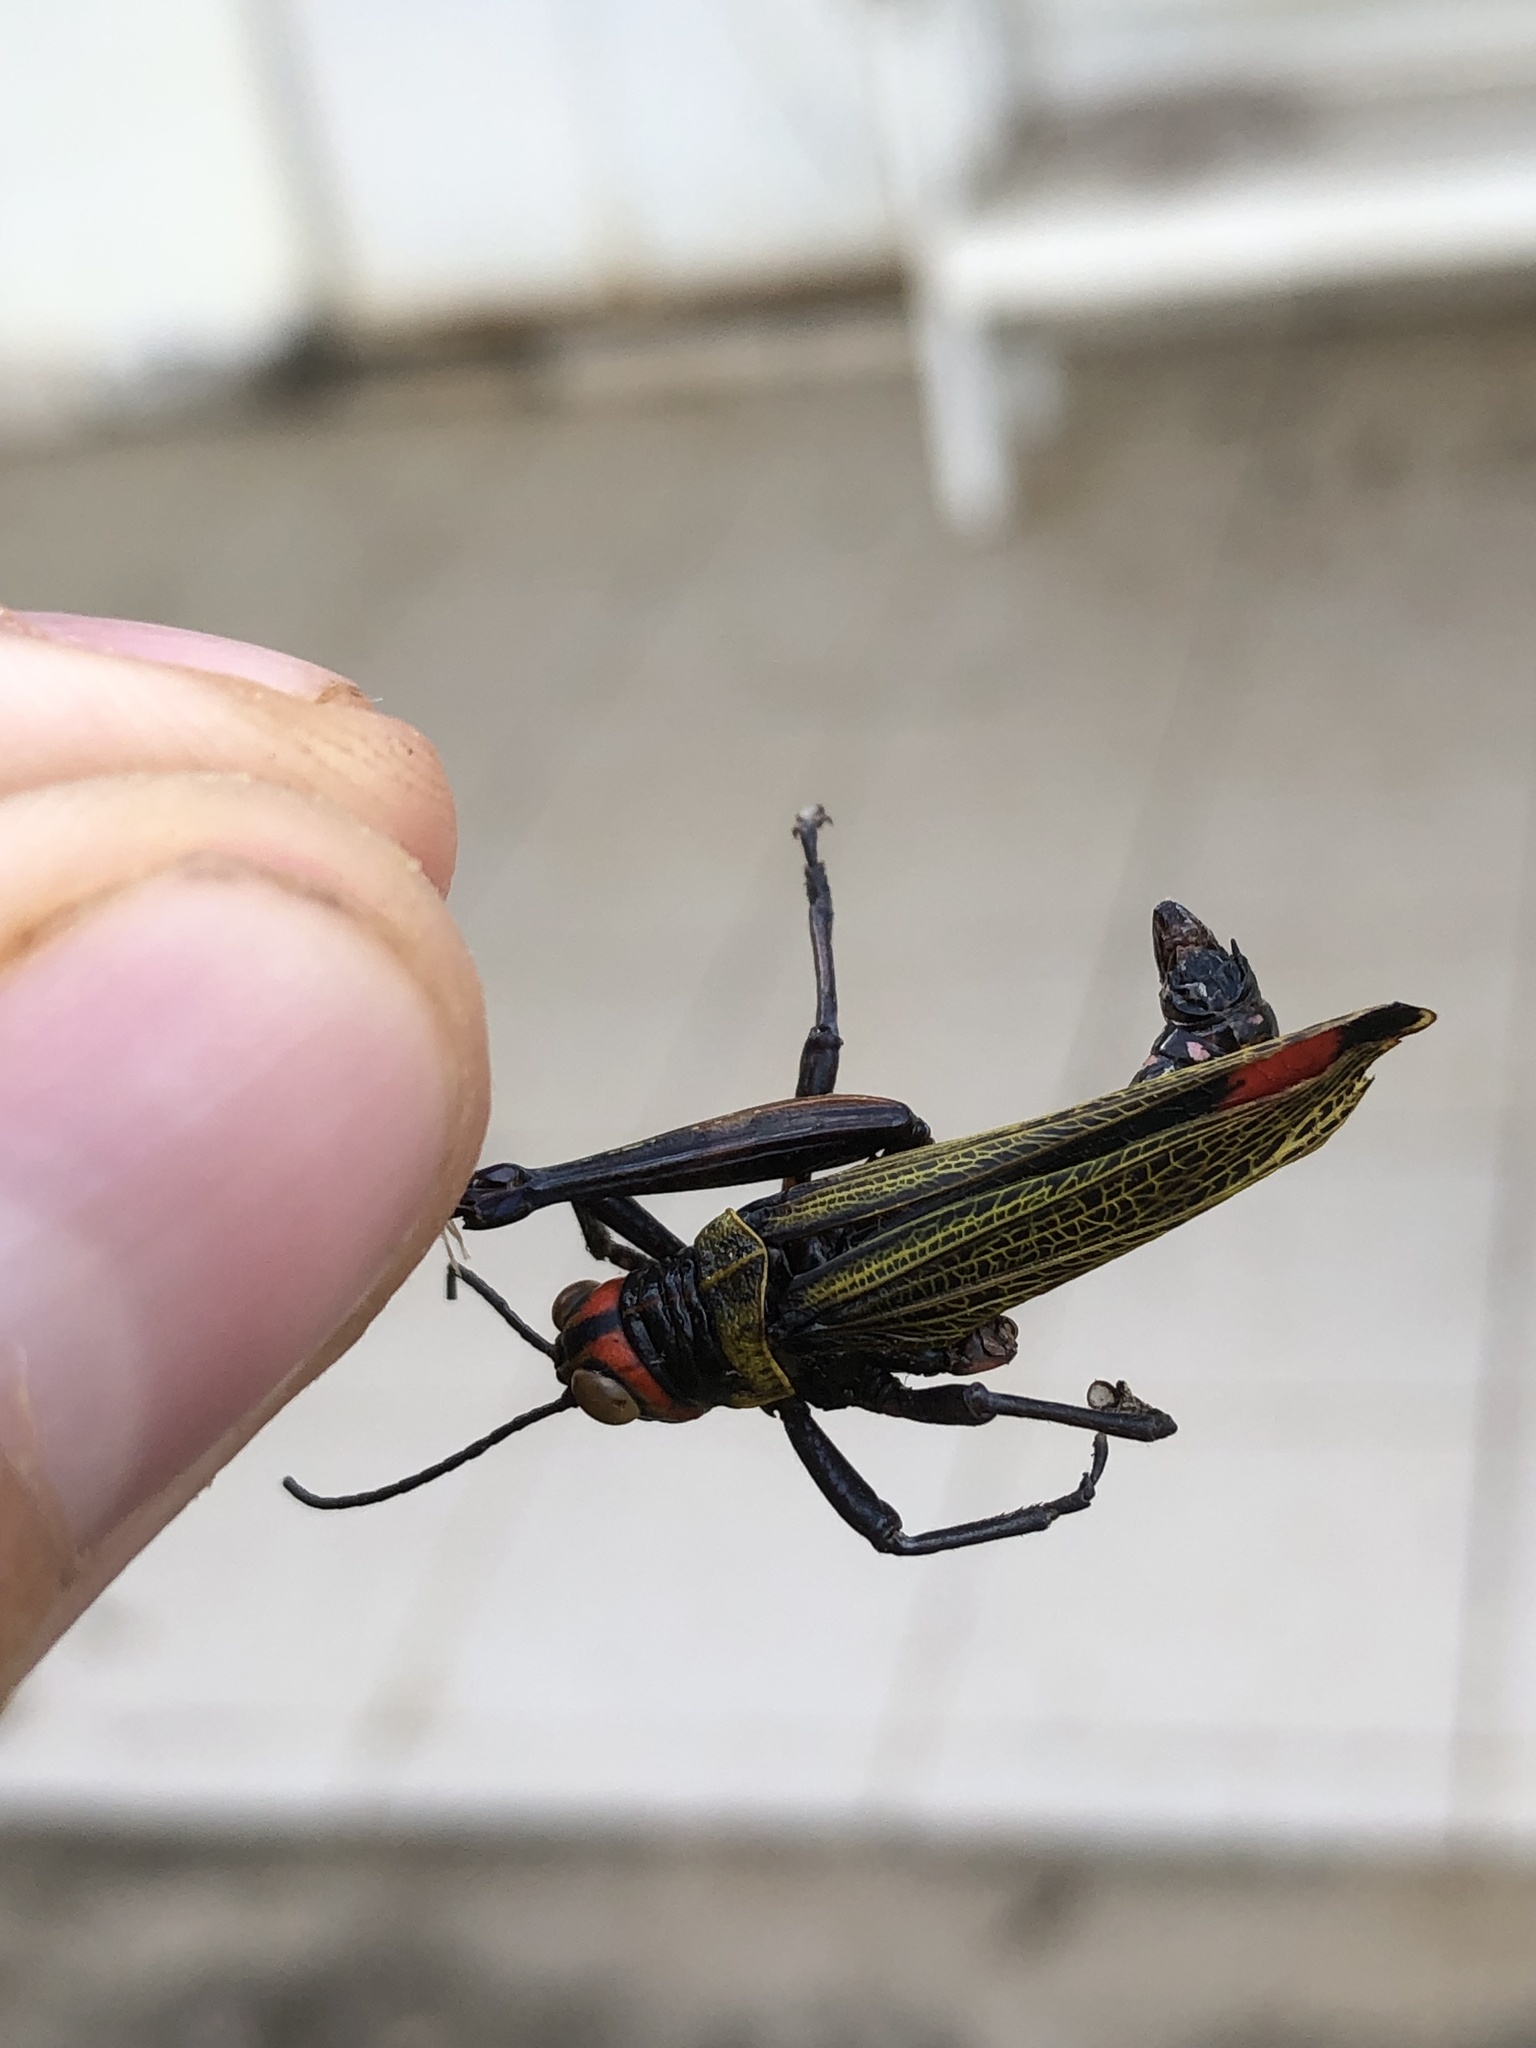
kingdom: Animalia
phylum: Arthropoda
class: Insecta
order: Orthoptera
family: Romaleidae
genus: Xestotrachelus
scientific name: Xestotrachelus robustus
